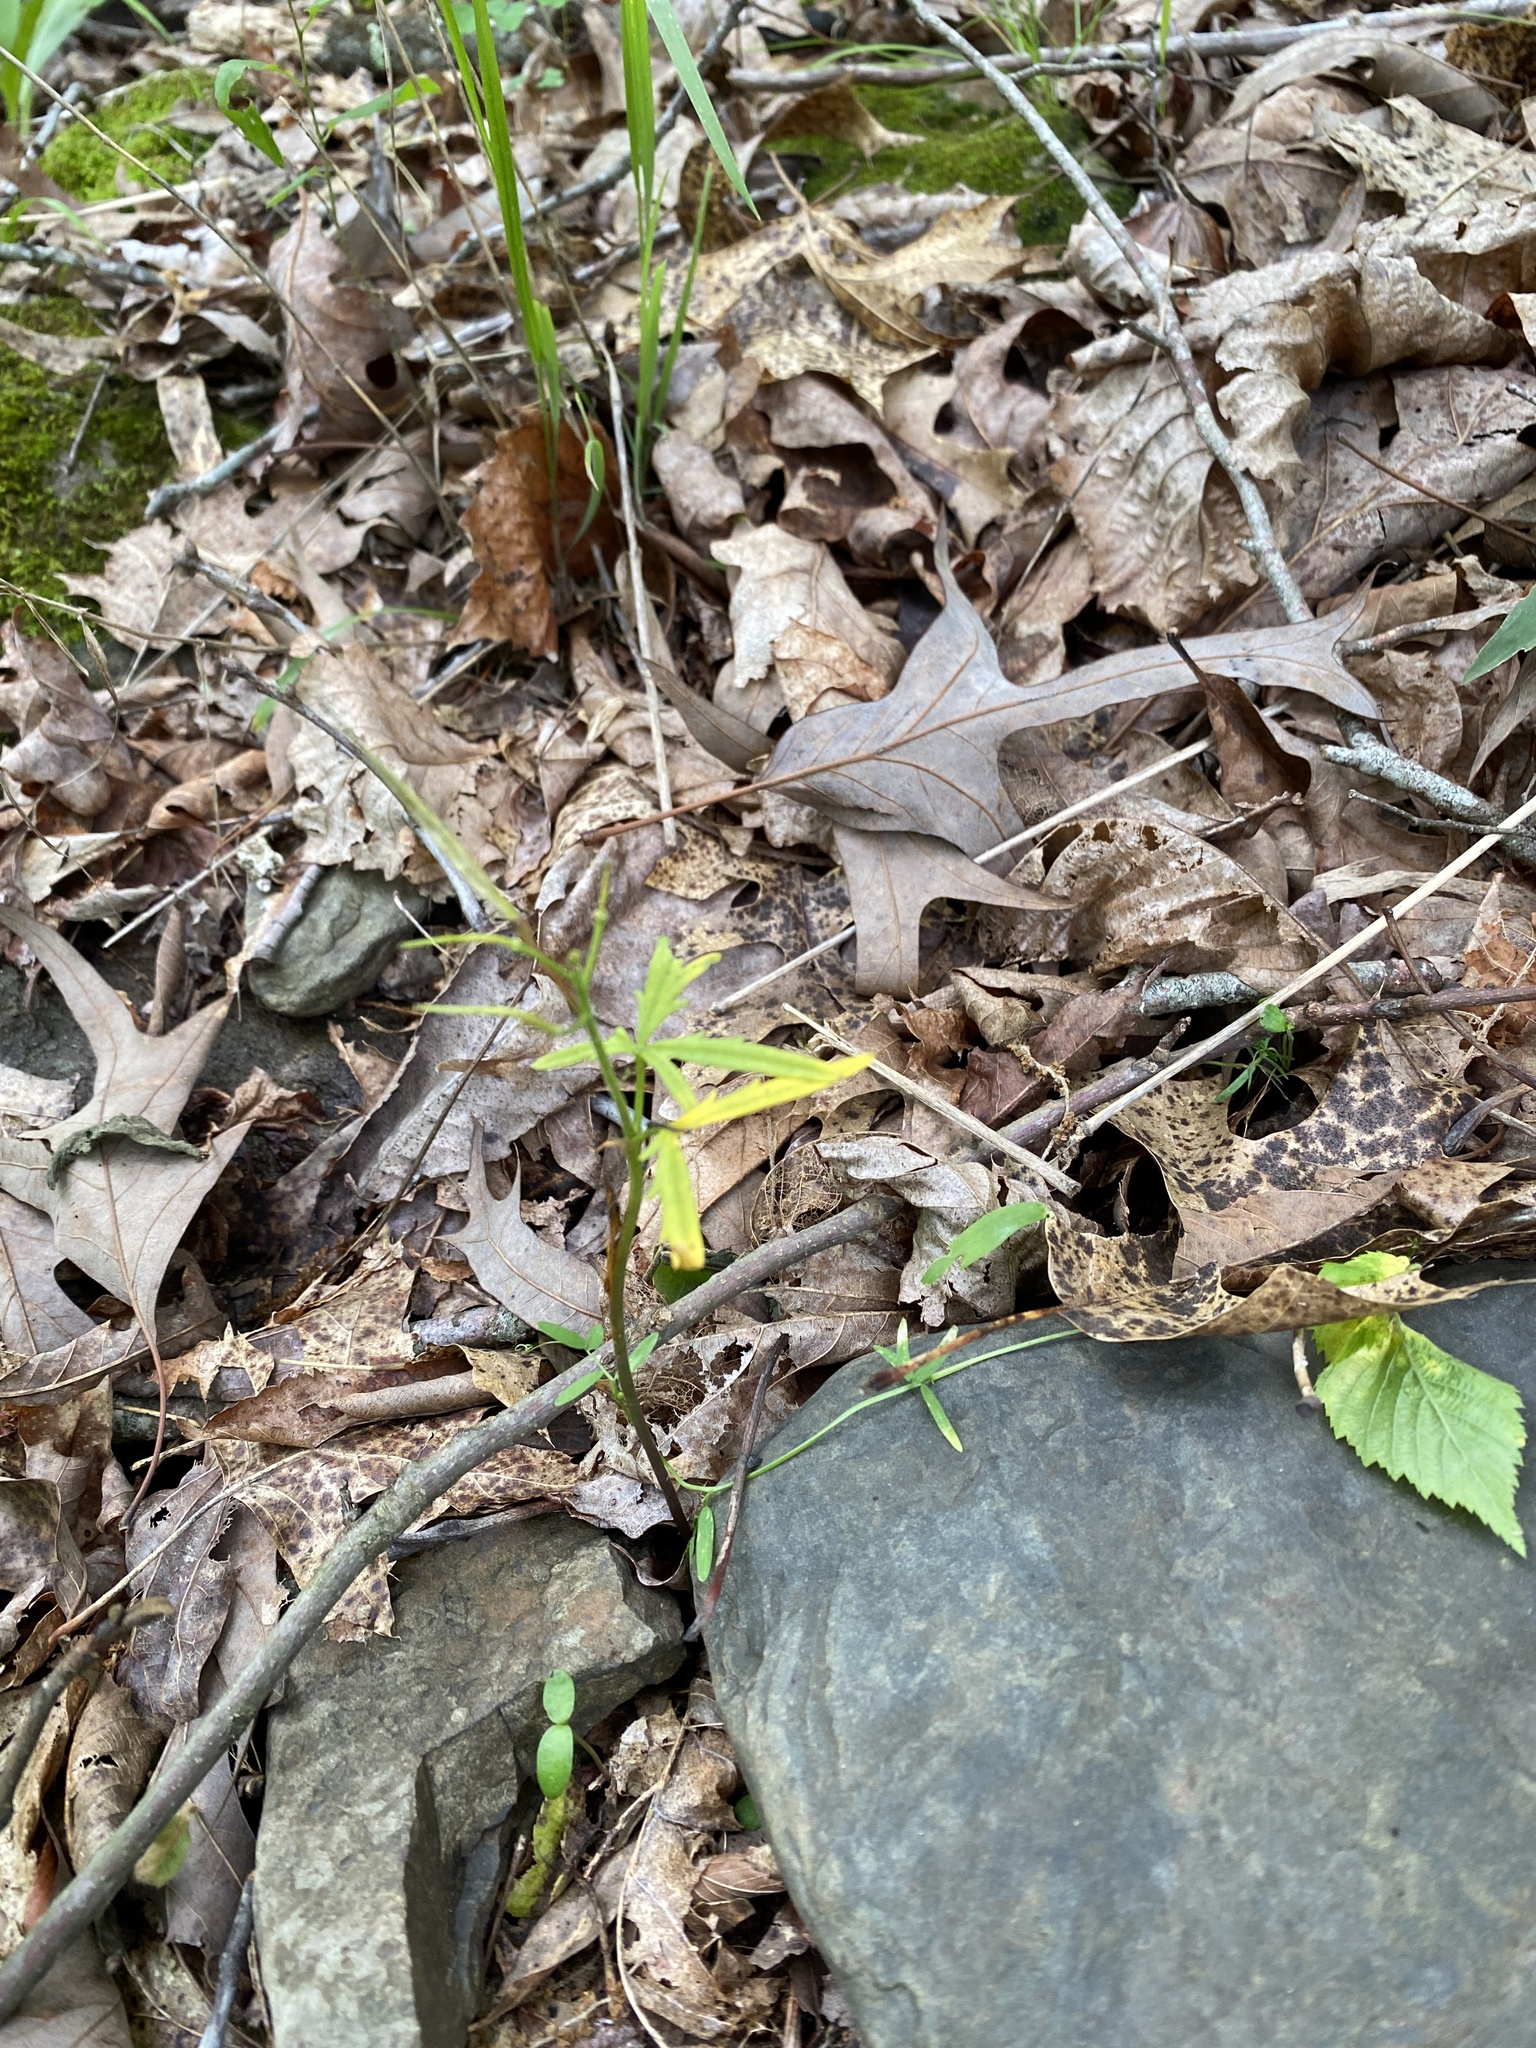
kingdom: Plantae
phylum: Tracheophyta
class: Magnoliopsida
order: Brassicales
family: Brassicaceae
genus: Cardamine
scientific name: Cardamine concatenata
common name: Cut-leaf toothcup
